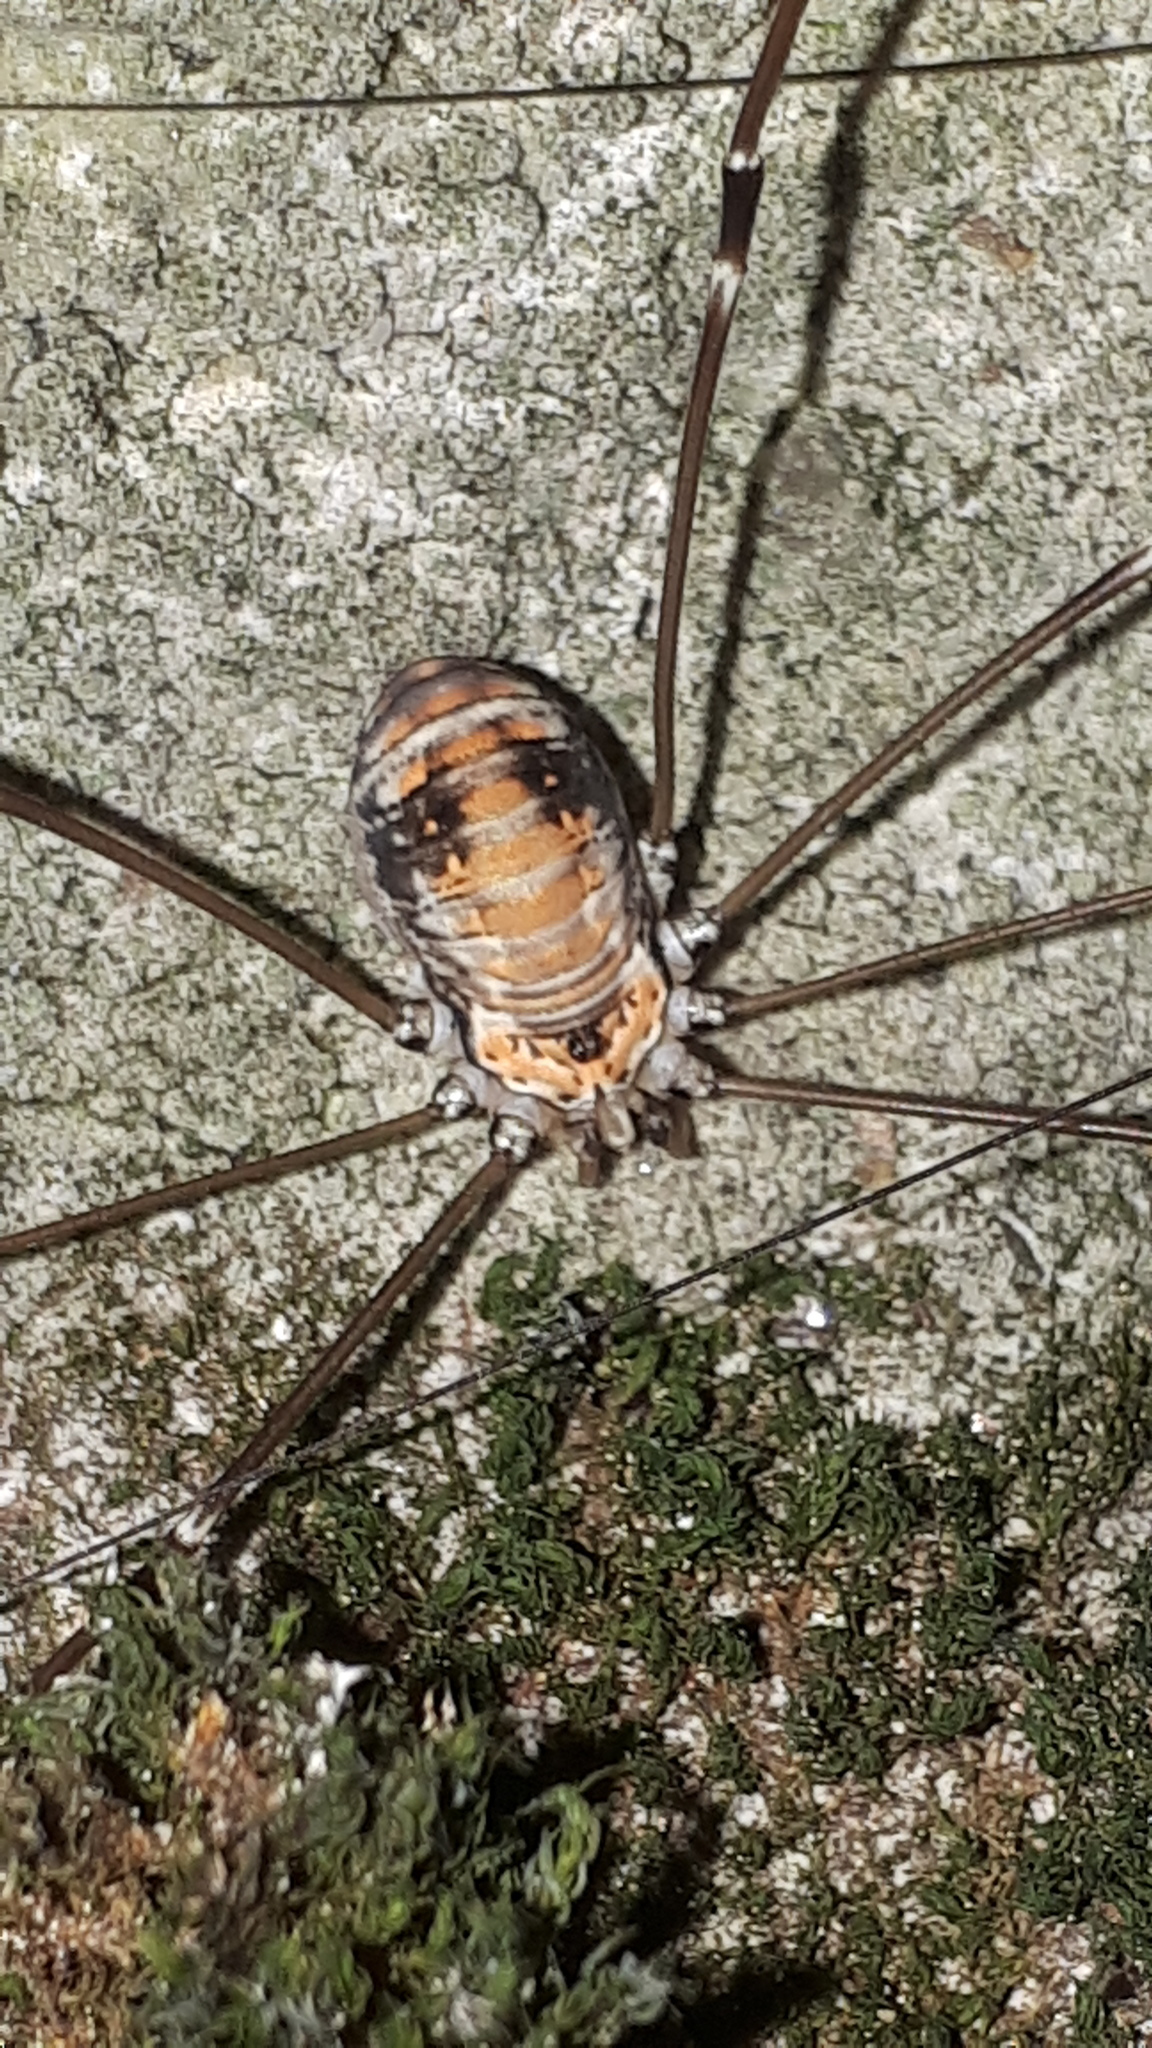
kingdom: Animalia
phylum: Arthropoda
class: Arachnida
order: Opiliones
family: Sclerosomatidae
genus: Leiobunum
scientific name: Leiobunum limbatum
